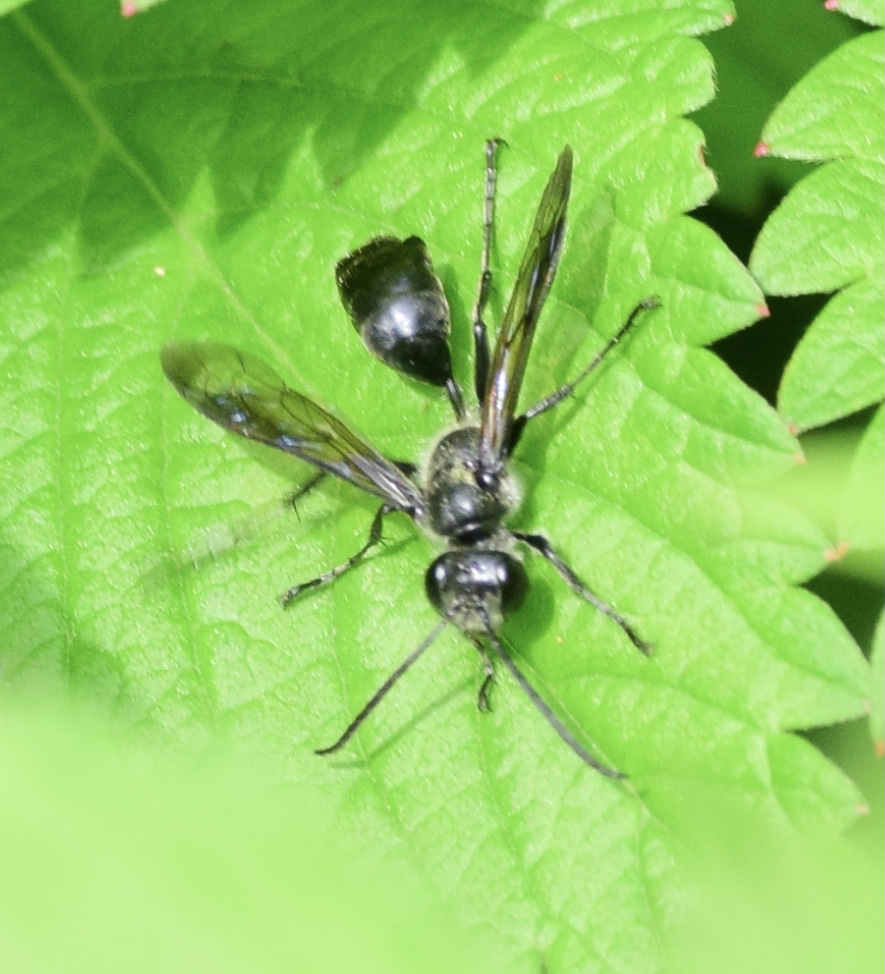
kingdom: Animalia
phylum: Arthropoda
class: Insecta
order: Hymenoptera
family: Sphecidae
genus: Isodontia
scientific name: Isodontia mexicana
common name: Mud dauber
